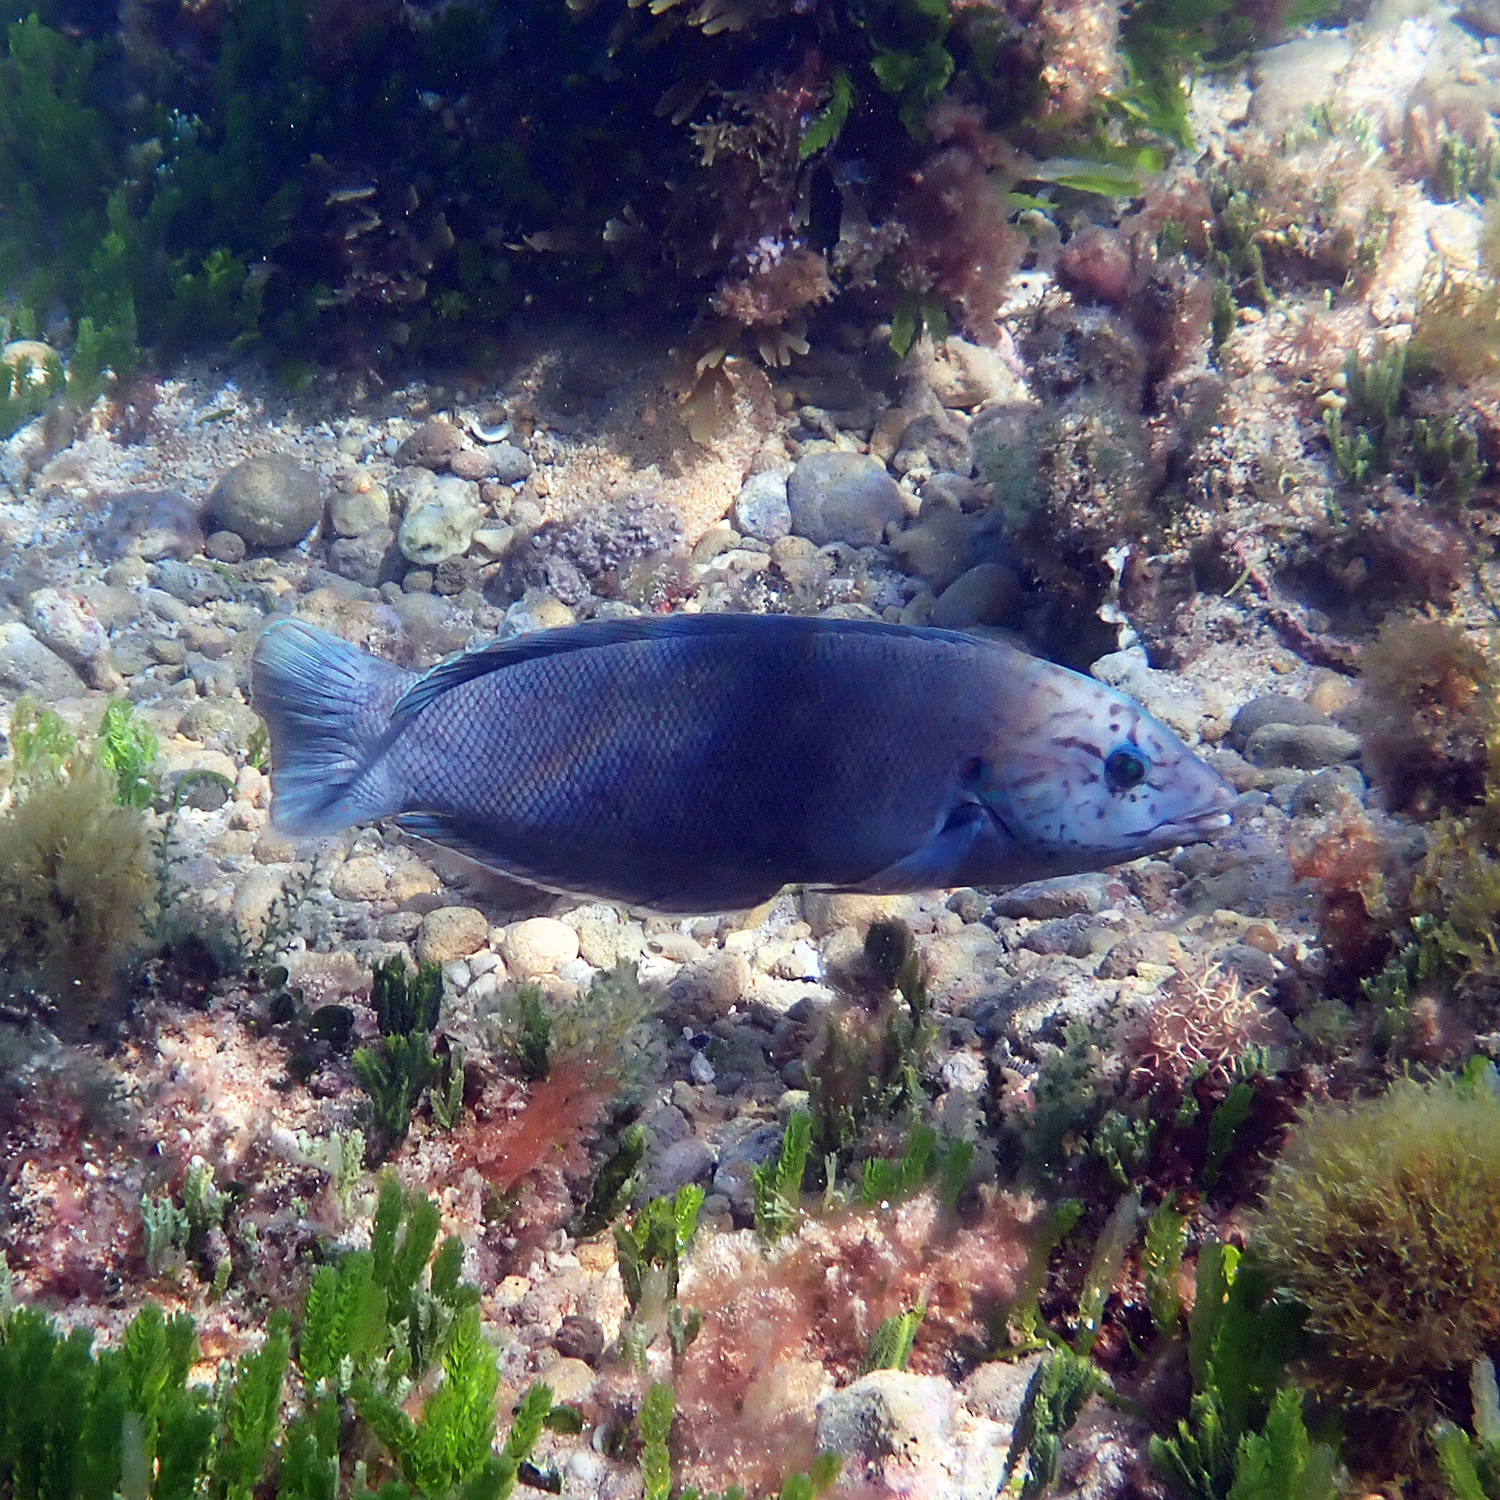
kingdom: Animalia
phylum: Chordata
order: Perciformes
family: Labridae
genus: Coris
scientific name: Coris bulbifrons
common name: Doubleheader
